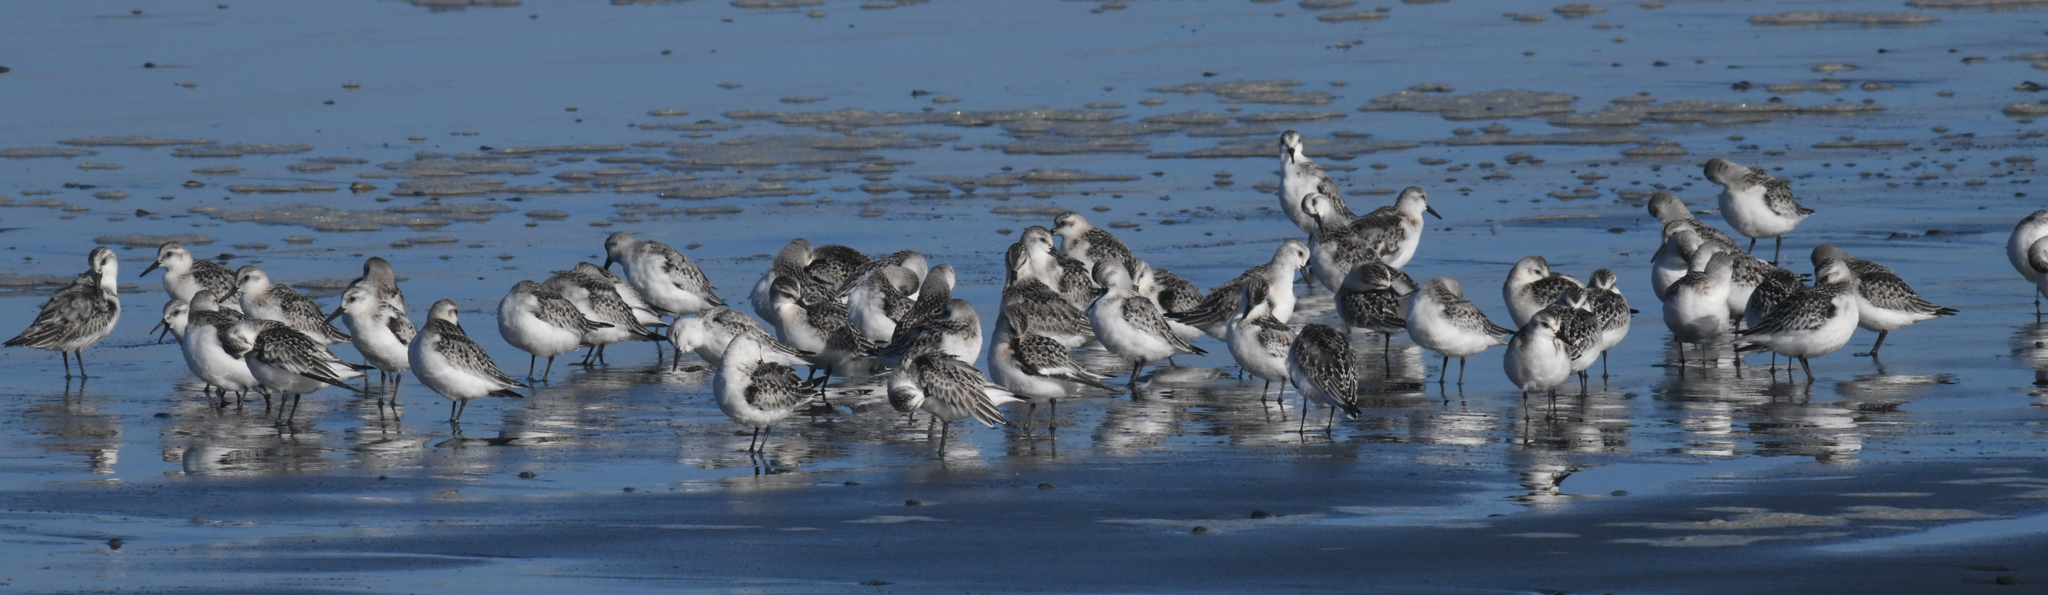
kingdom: Animalia
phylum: Chordata
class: Aves
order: Charadriiformes
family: Scolopacidae
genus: Calidris
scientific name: Calidris alba
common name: Sanderling
